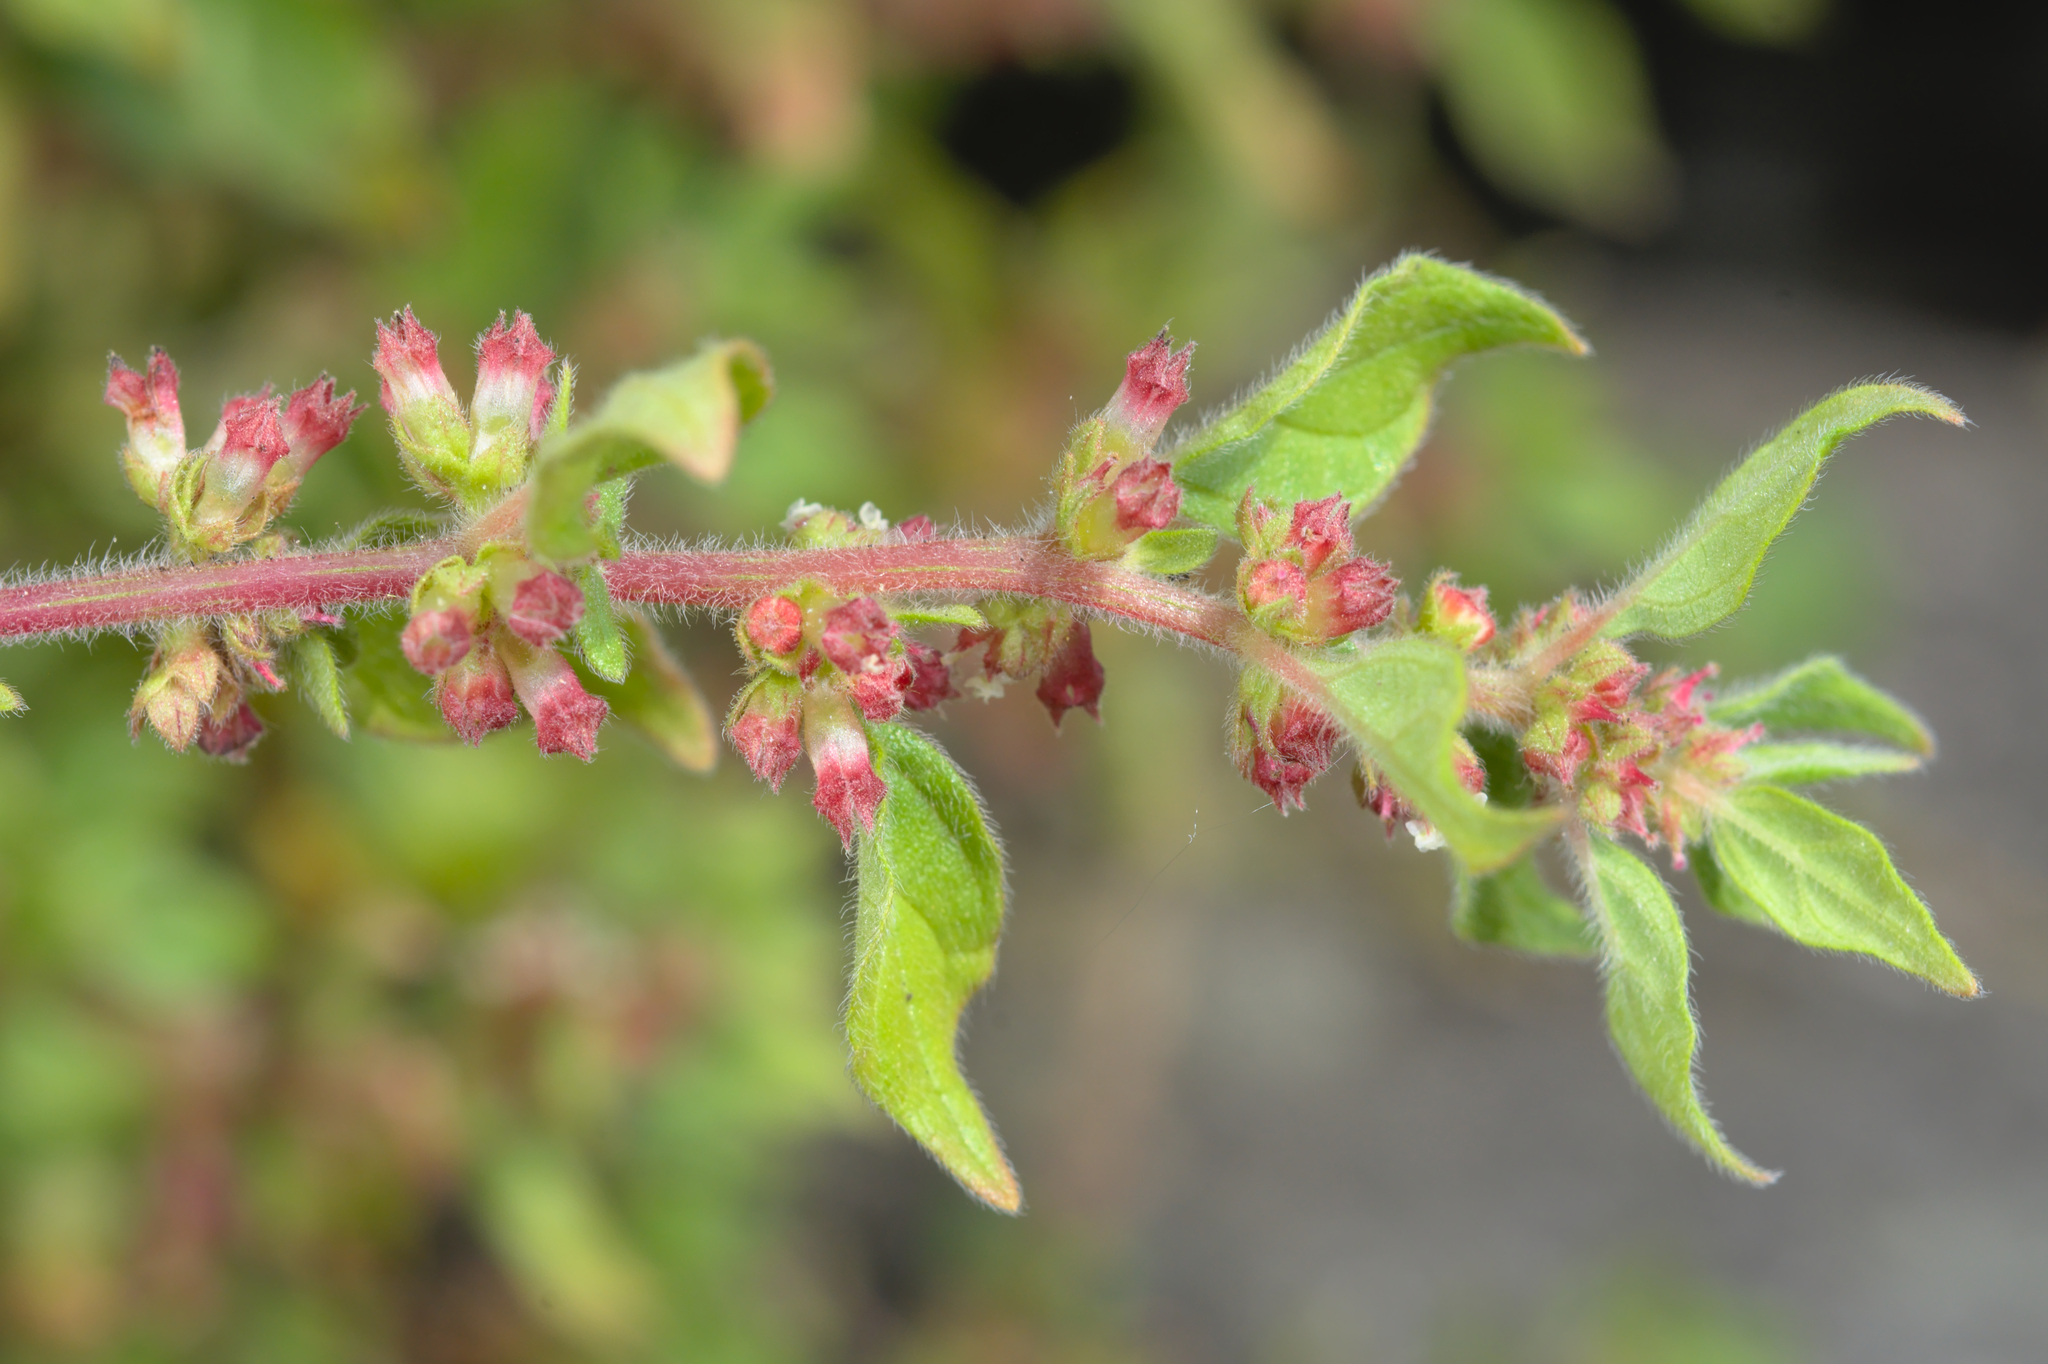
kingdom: Plantae
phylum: Tracheophyta
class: Magnoliopsida
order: Rosales
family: Urticaceae
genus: Parietaria
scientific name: Parietaria judaica
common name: Pellitory-of-the-wall
